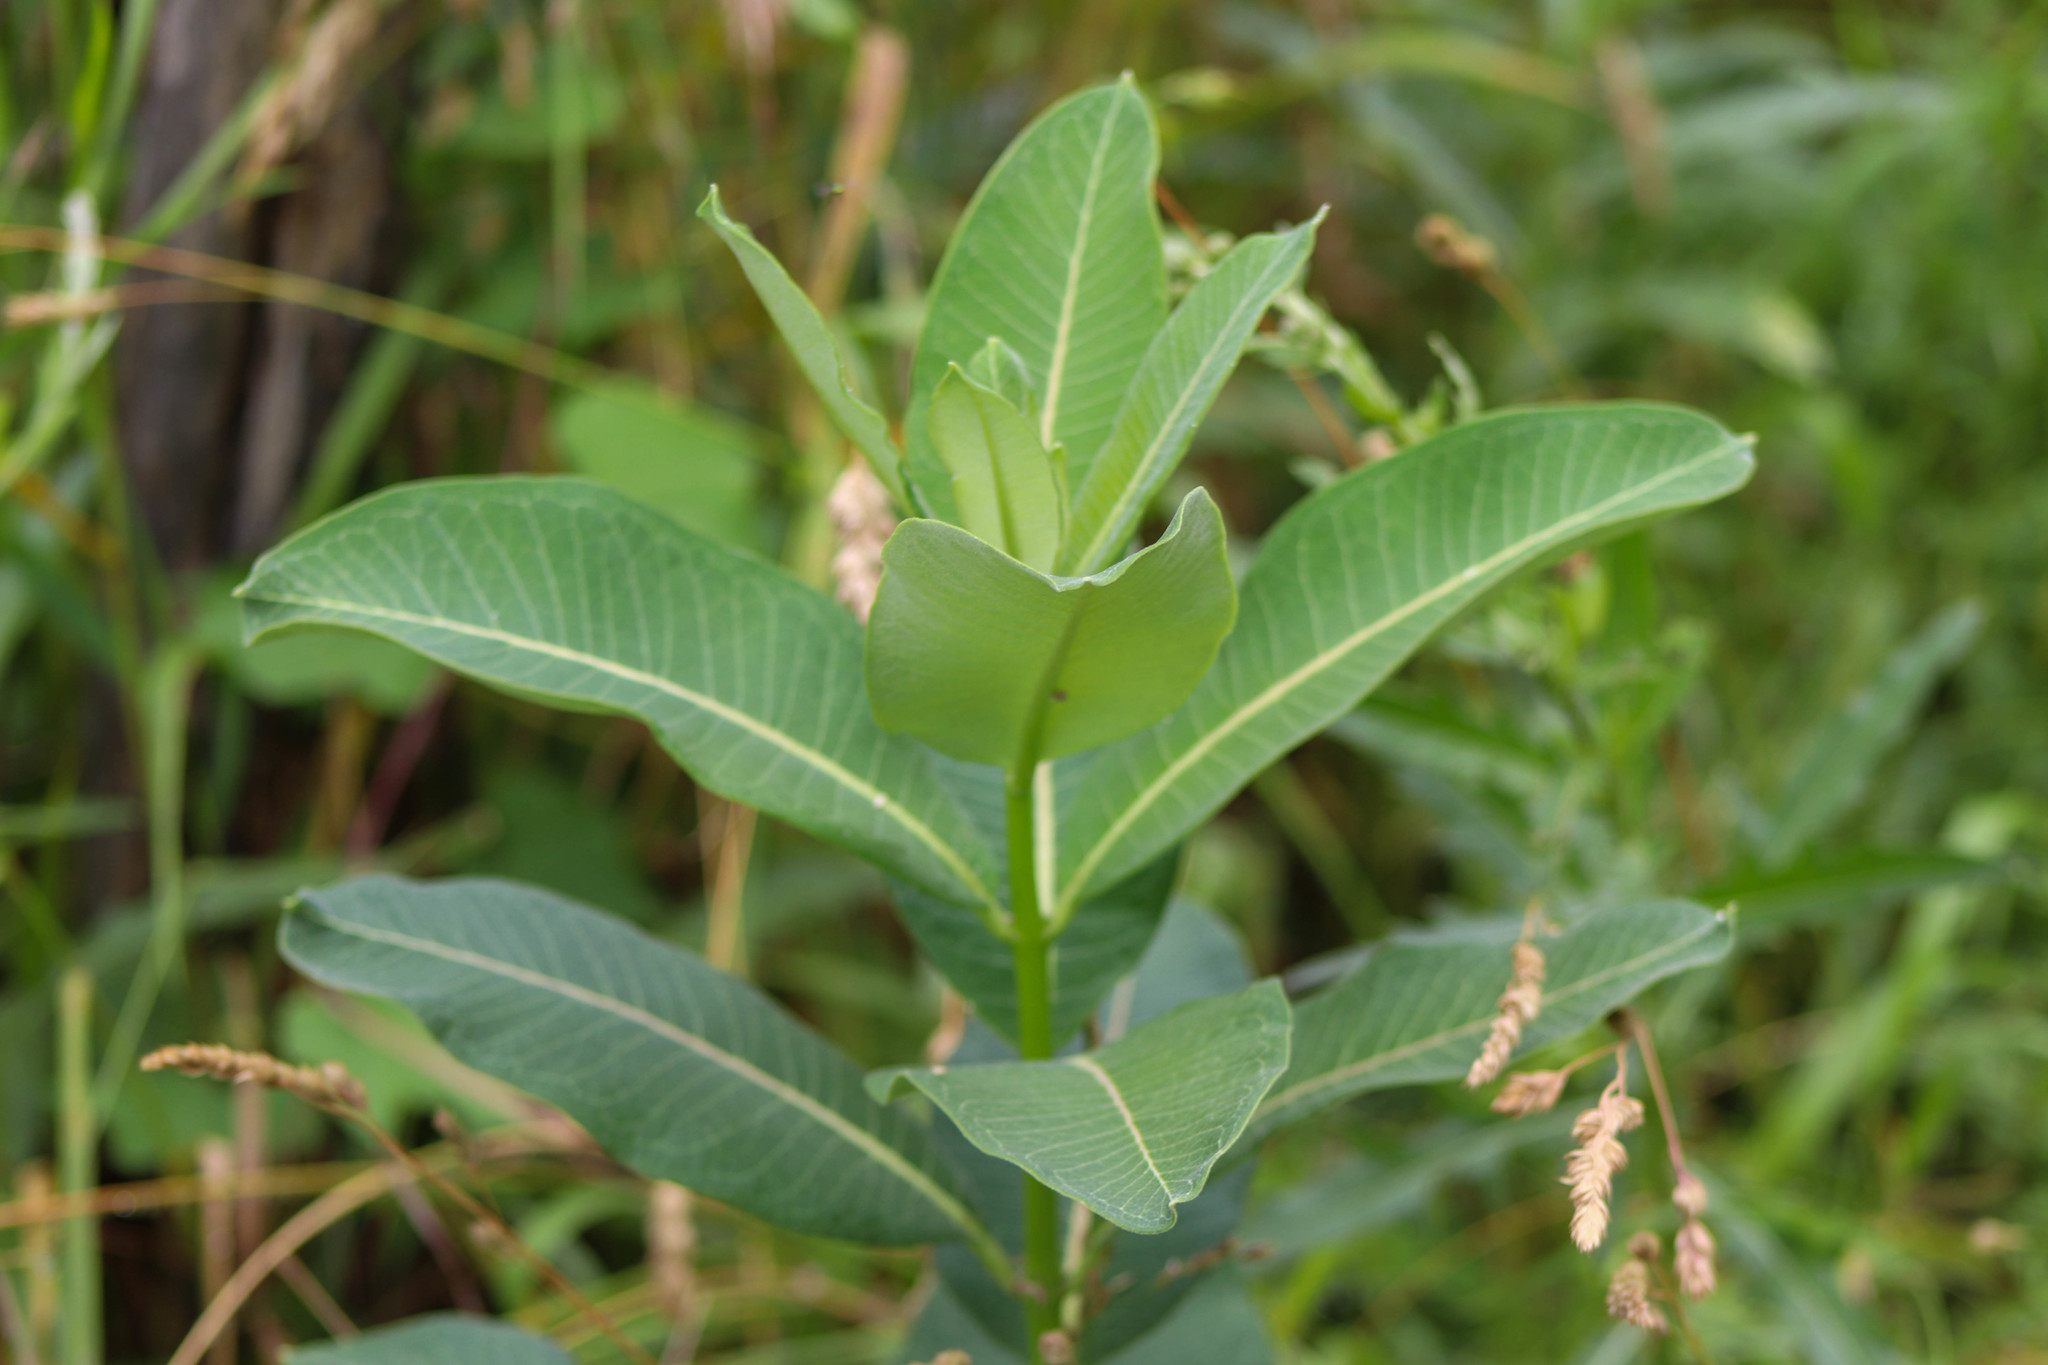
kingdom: Plantae
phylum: Tracheophyta
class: Magnoliopsida
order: Gentianales
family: Apocynaceae
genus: Asclepias
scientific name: Asclepias syriaca
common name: Common milkweed
